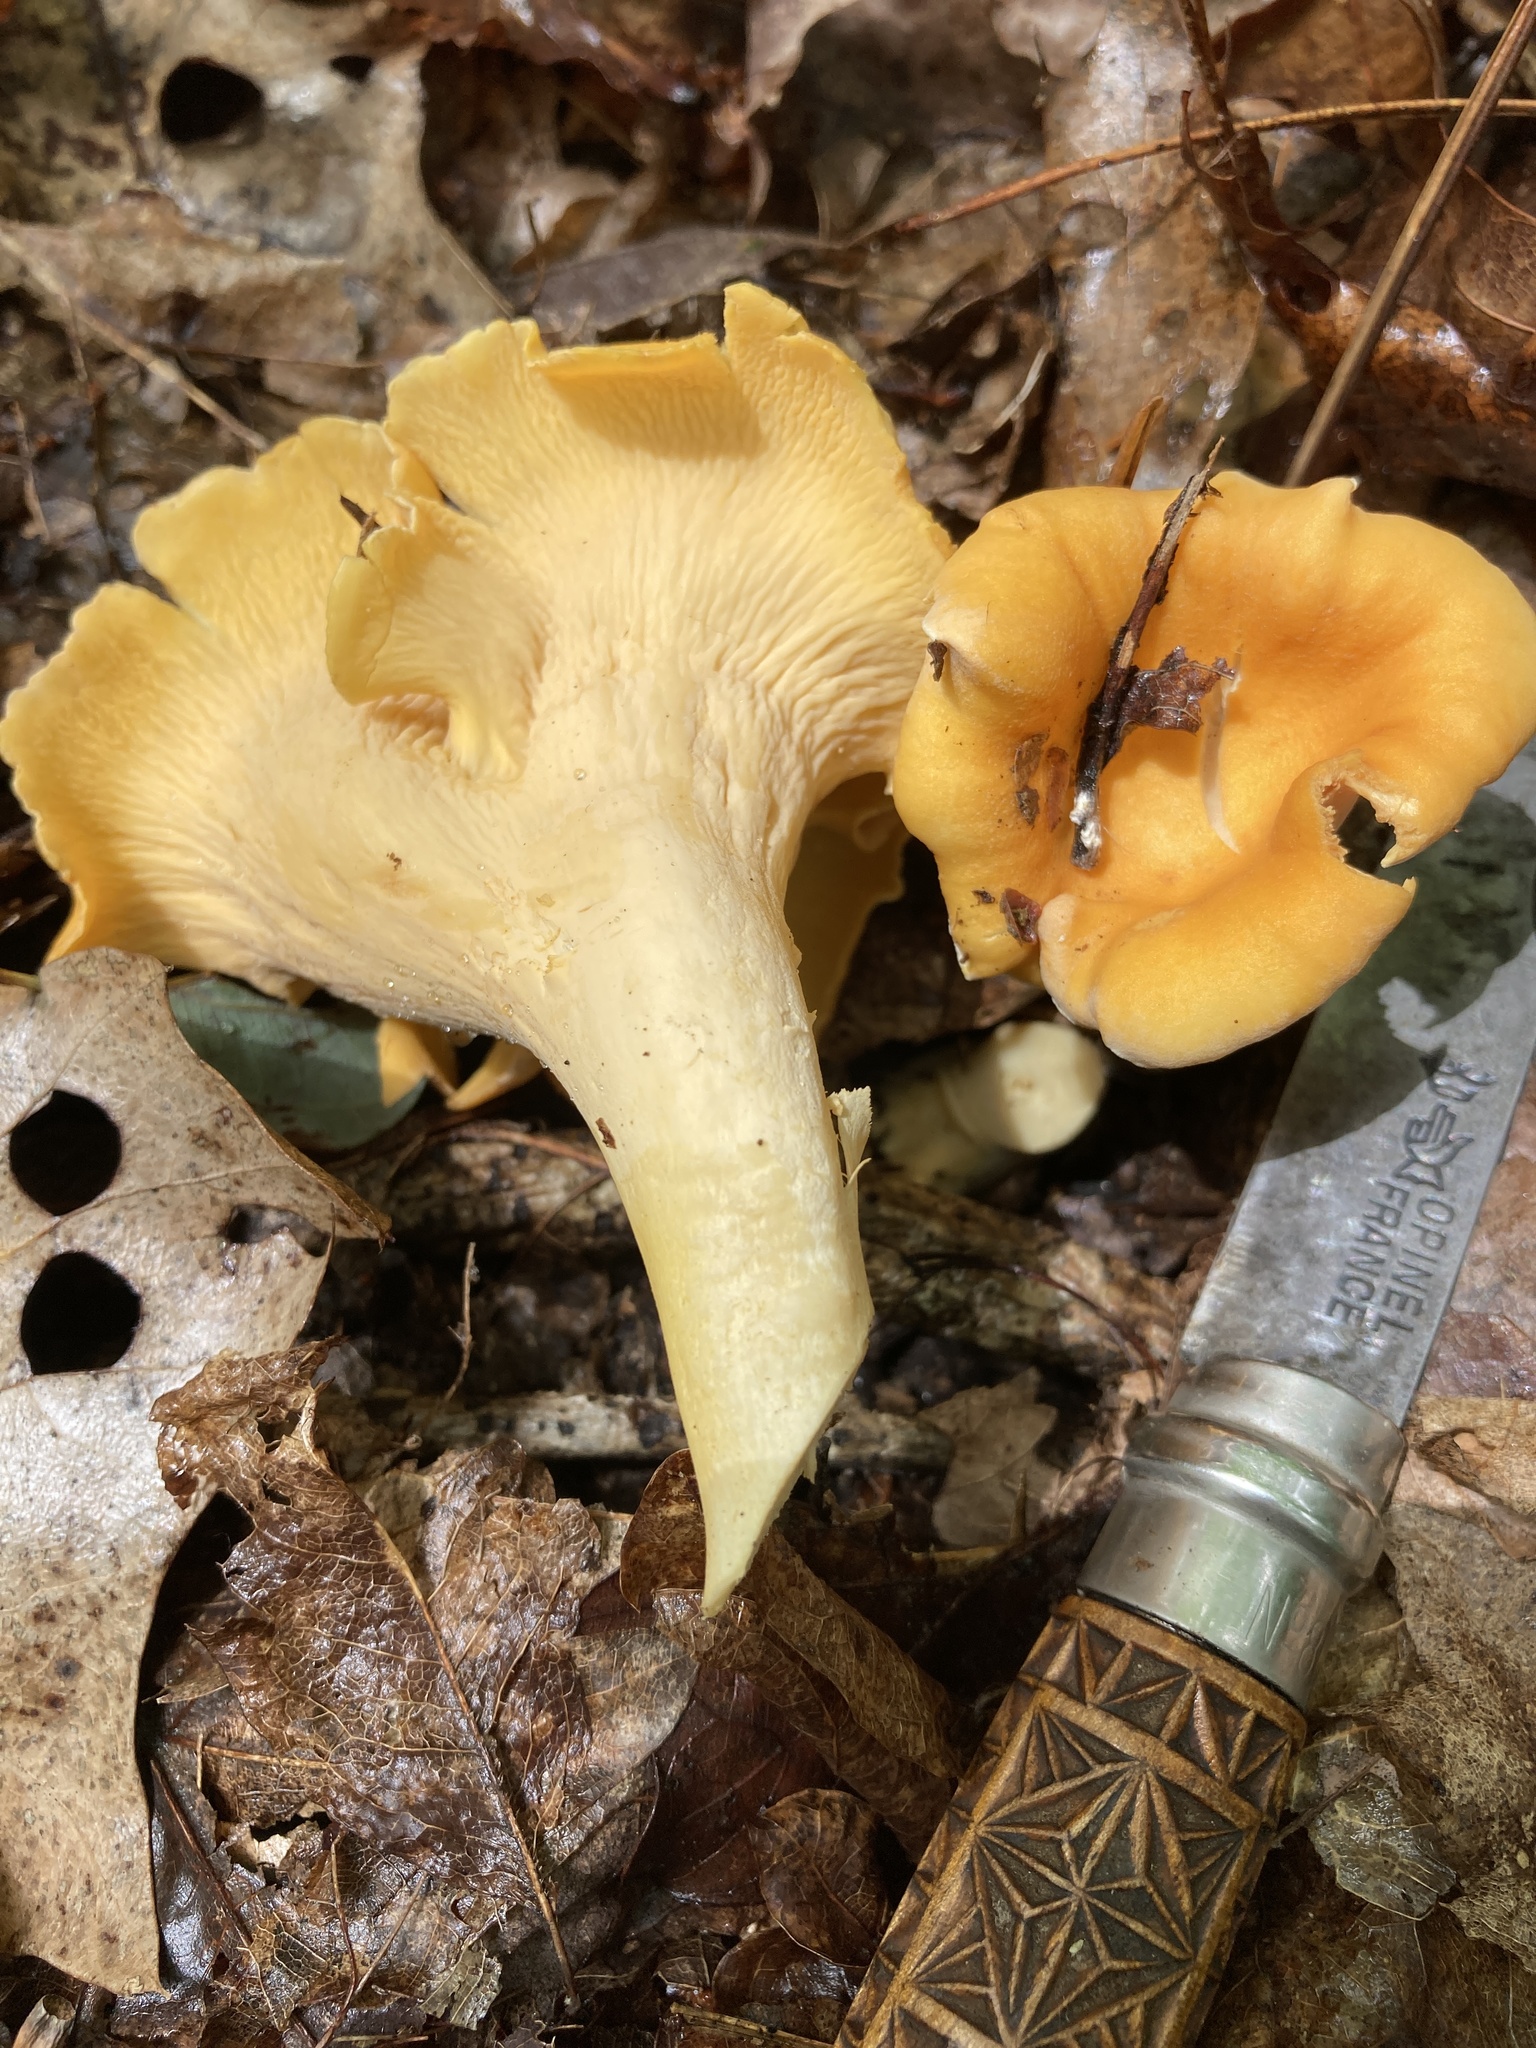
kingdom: Fungi
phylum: Basidiomycota
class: Agaricomycetes
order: Cantharellales
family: Hydnaceae
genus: Cantharellus
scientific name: Cantharellus lateritius
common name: Smooth chanterelle
